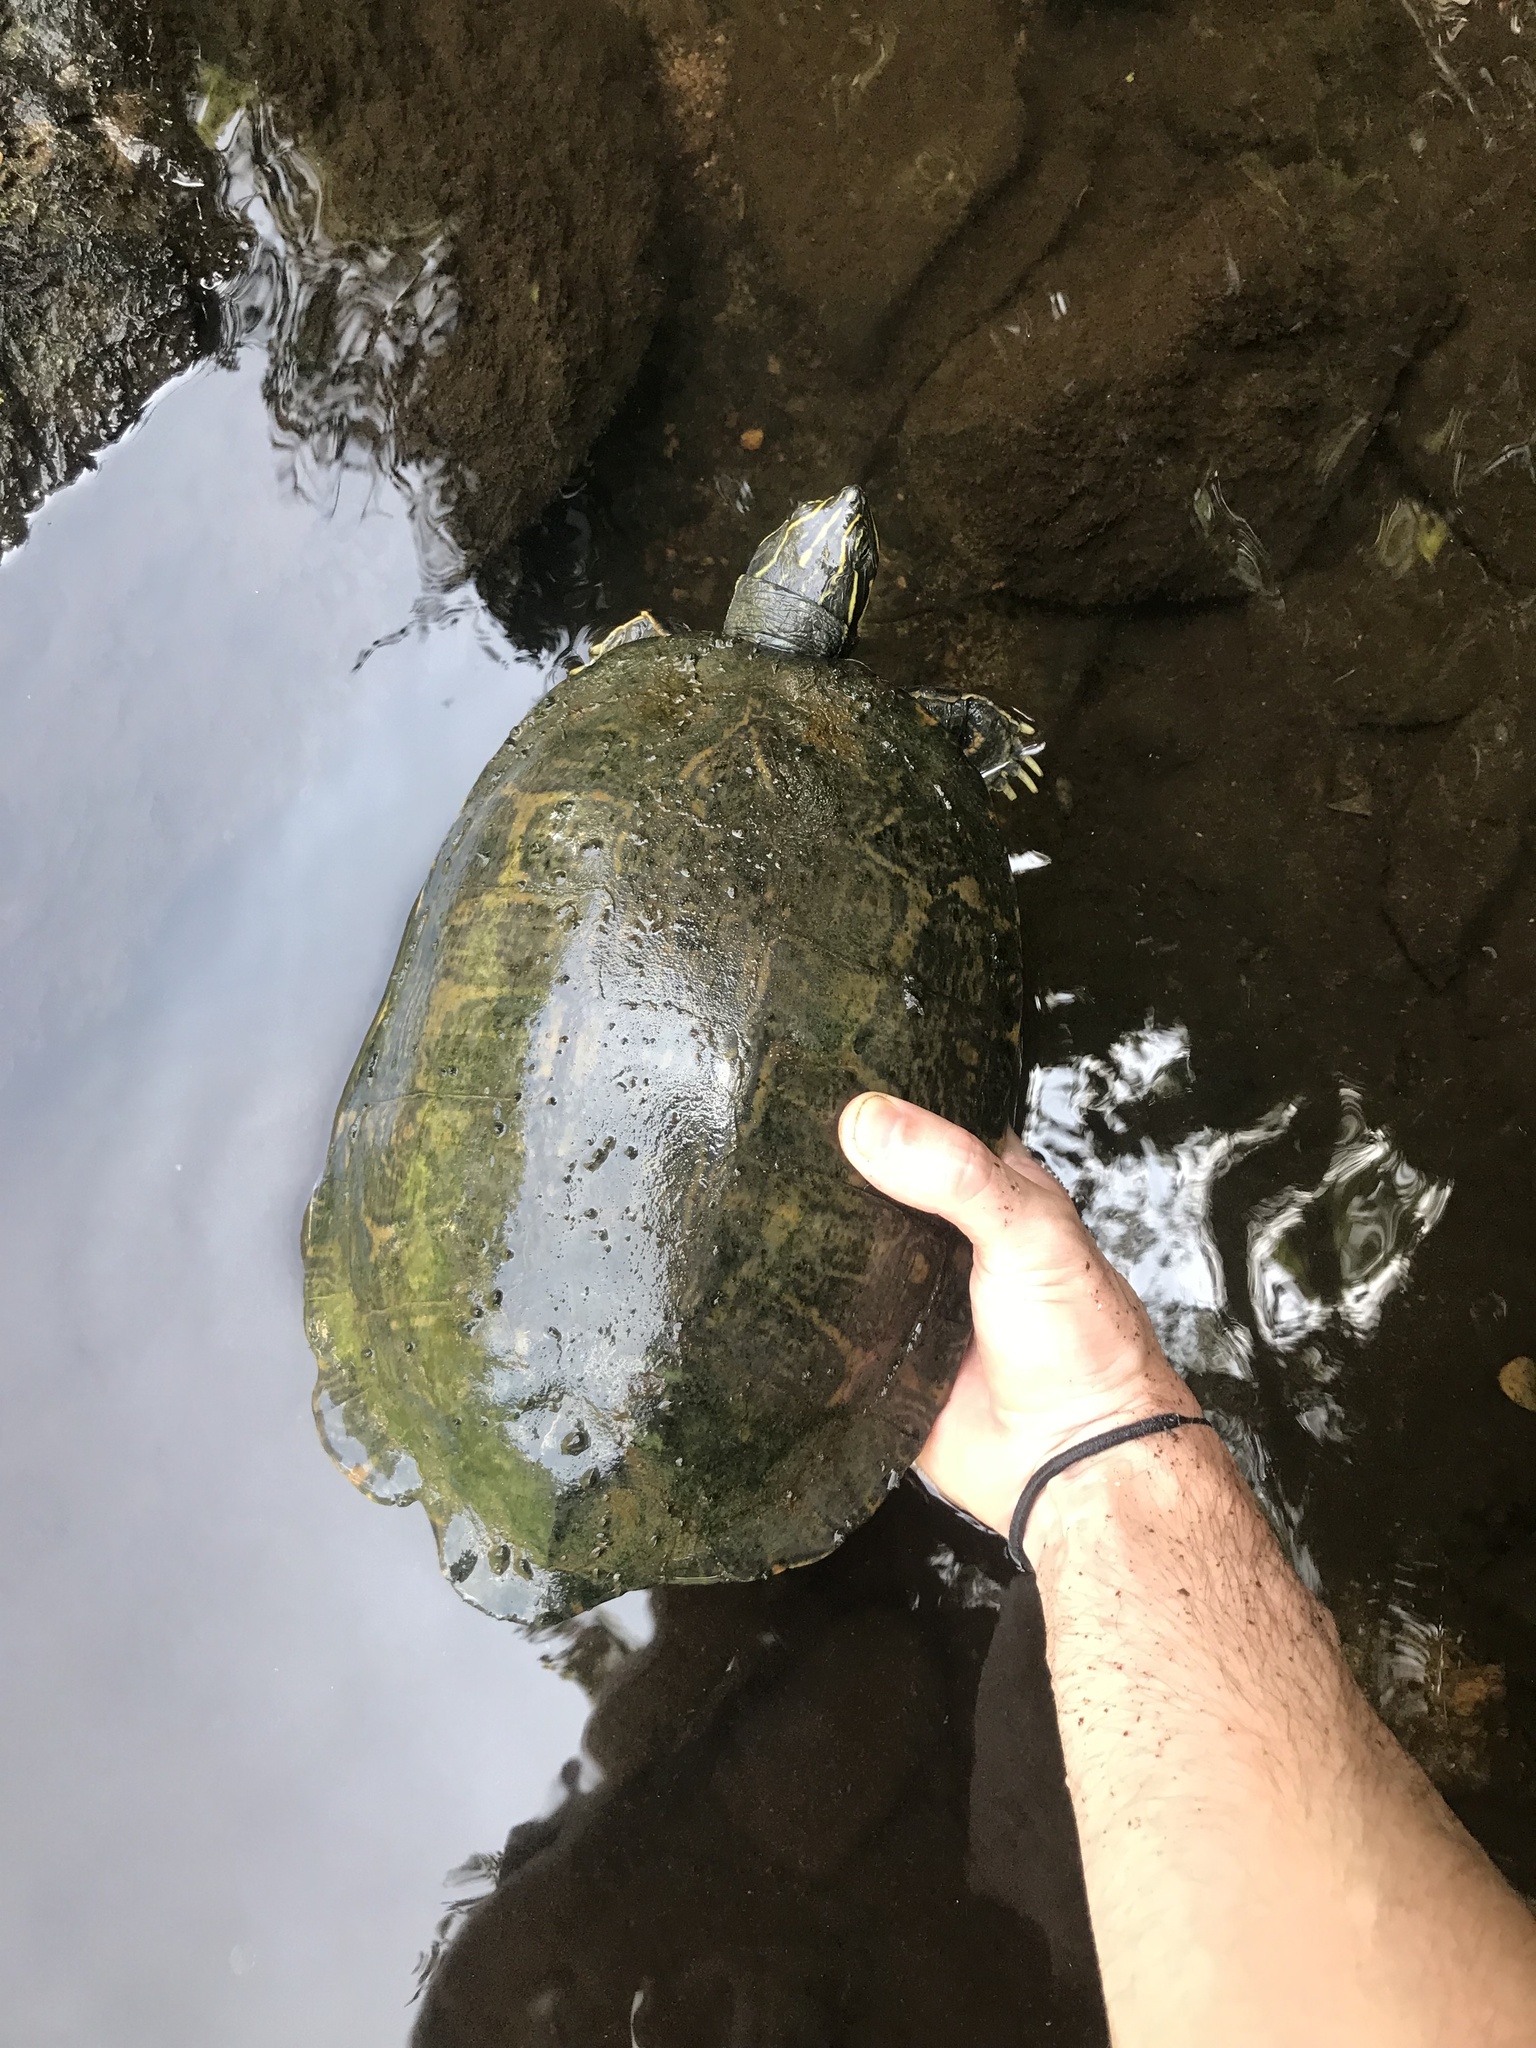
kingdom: Animalia
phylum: Chordata
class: Testudines
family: Emydidae
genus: Pseudemys
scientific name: Pseudemys concinna
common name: Eastern river cooter
